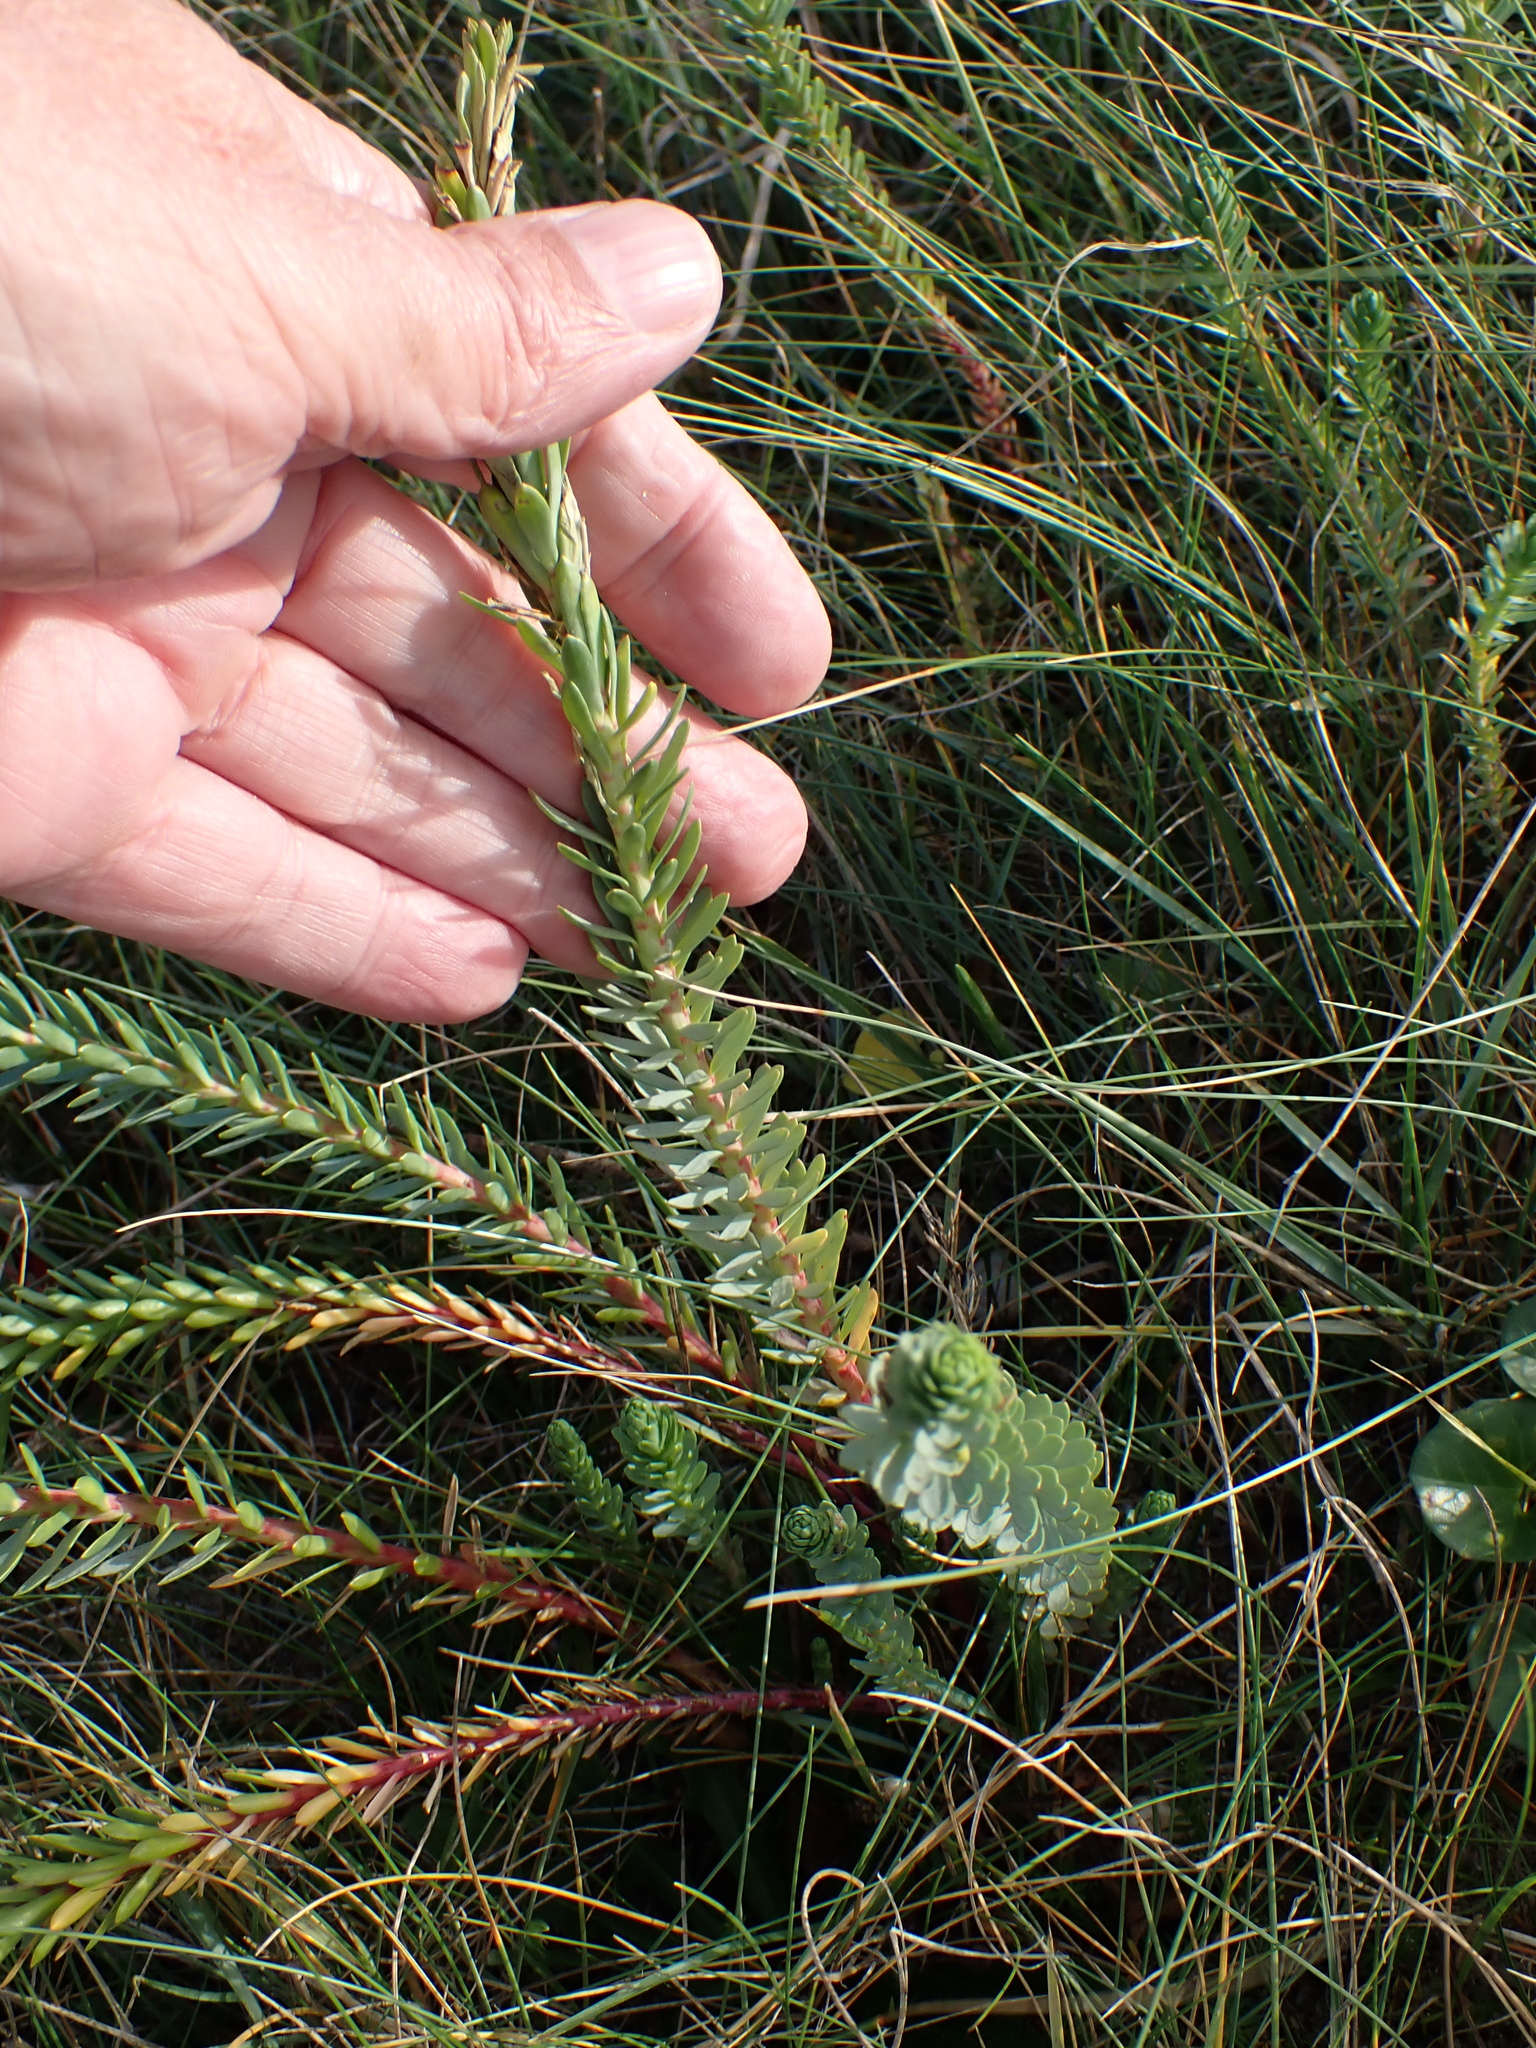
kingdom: Plantae
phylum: Tracheophyta
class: Magnoliopsida
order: Malpighiales
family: Euphorbiaceae
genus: Euphorbia
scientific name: Euphorbia paralias
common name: Sea spurge
